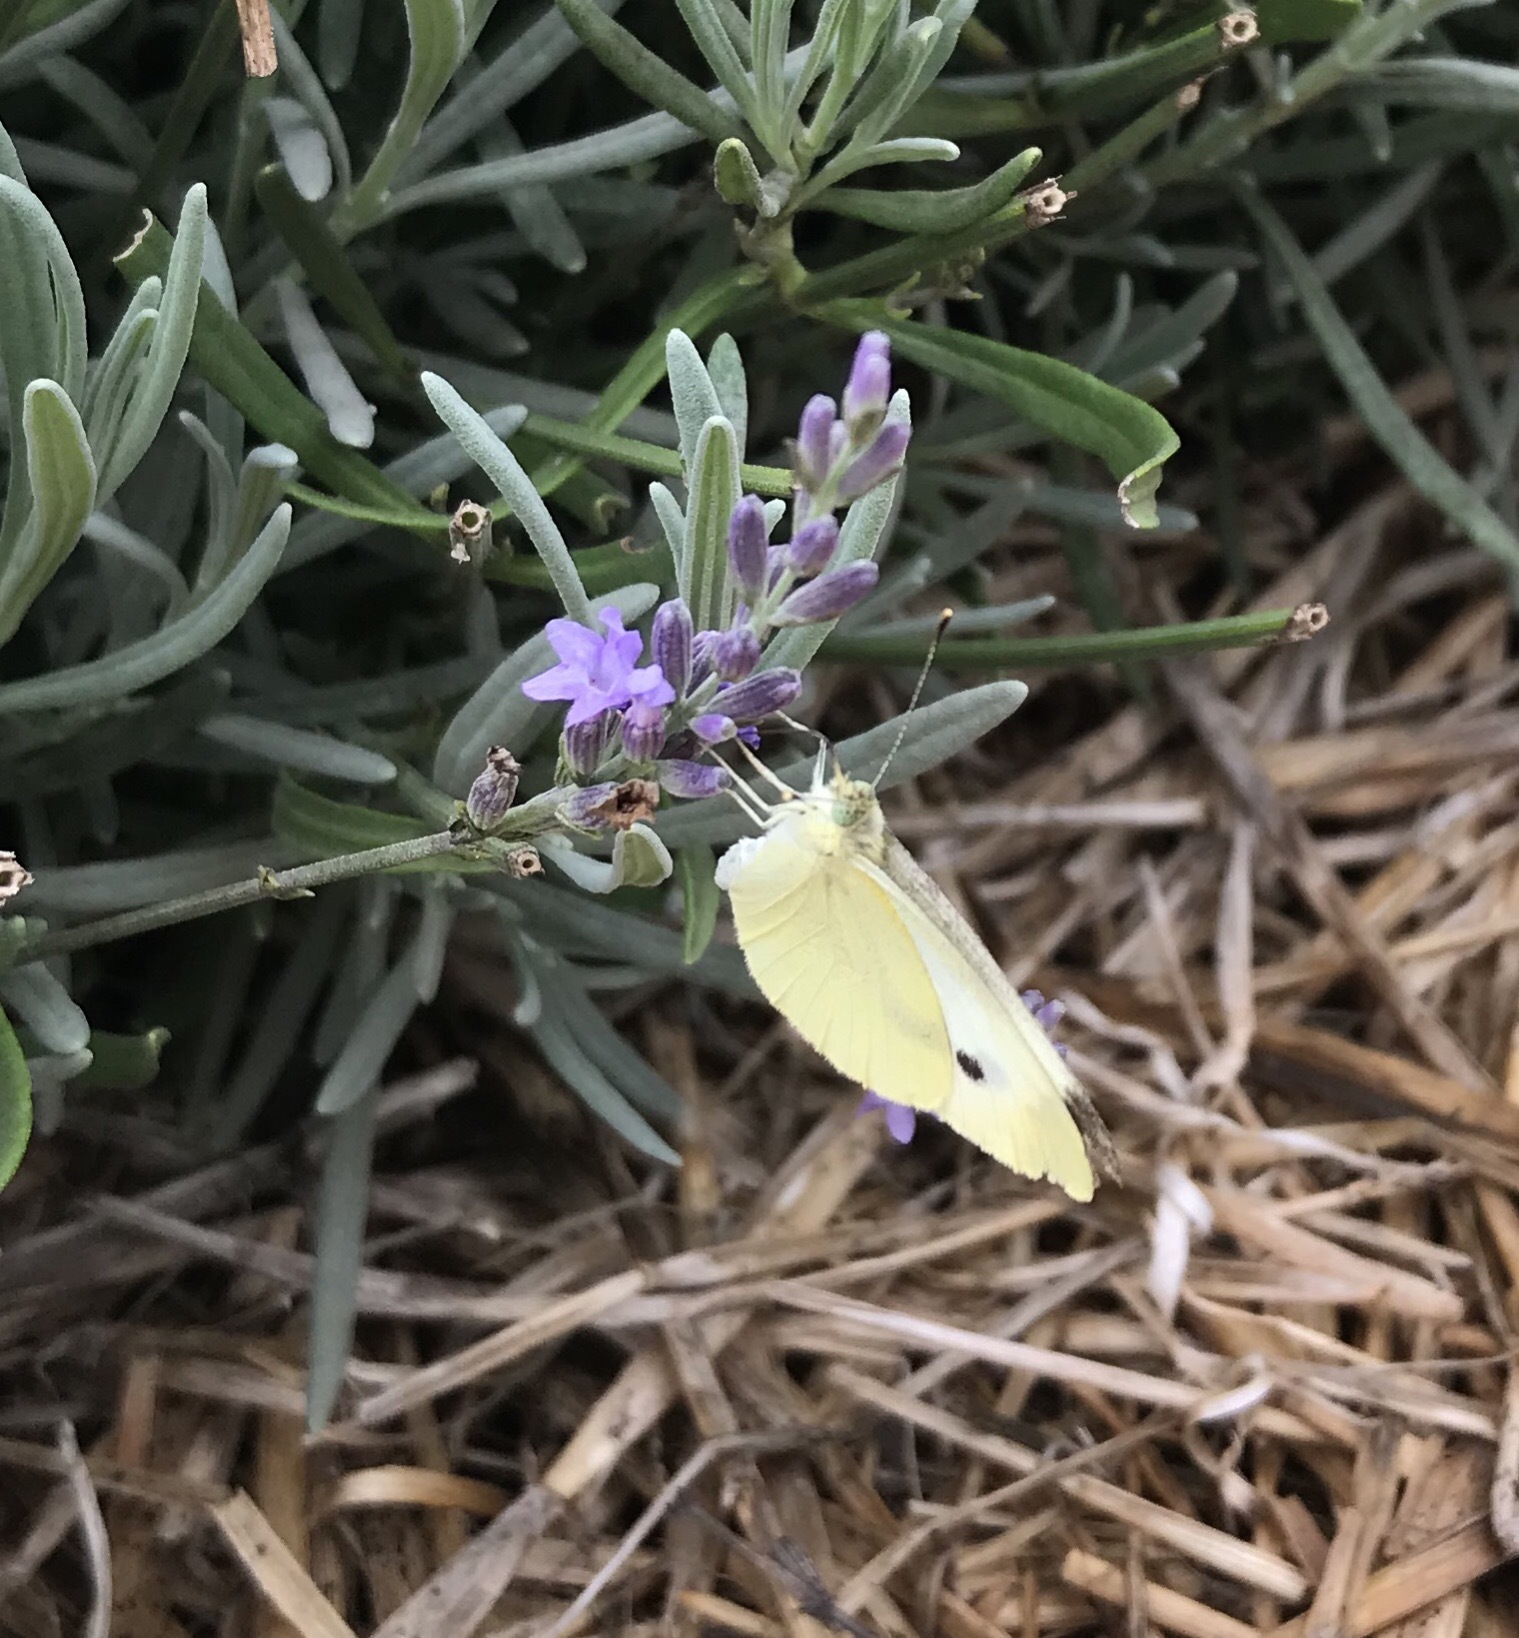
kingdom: Animalia
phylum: Arthropoda
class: Insecta
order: Lepidoptera
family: Pieridae
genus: Pieris
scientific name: Pieris rapae
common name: Small white
